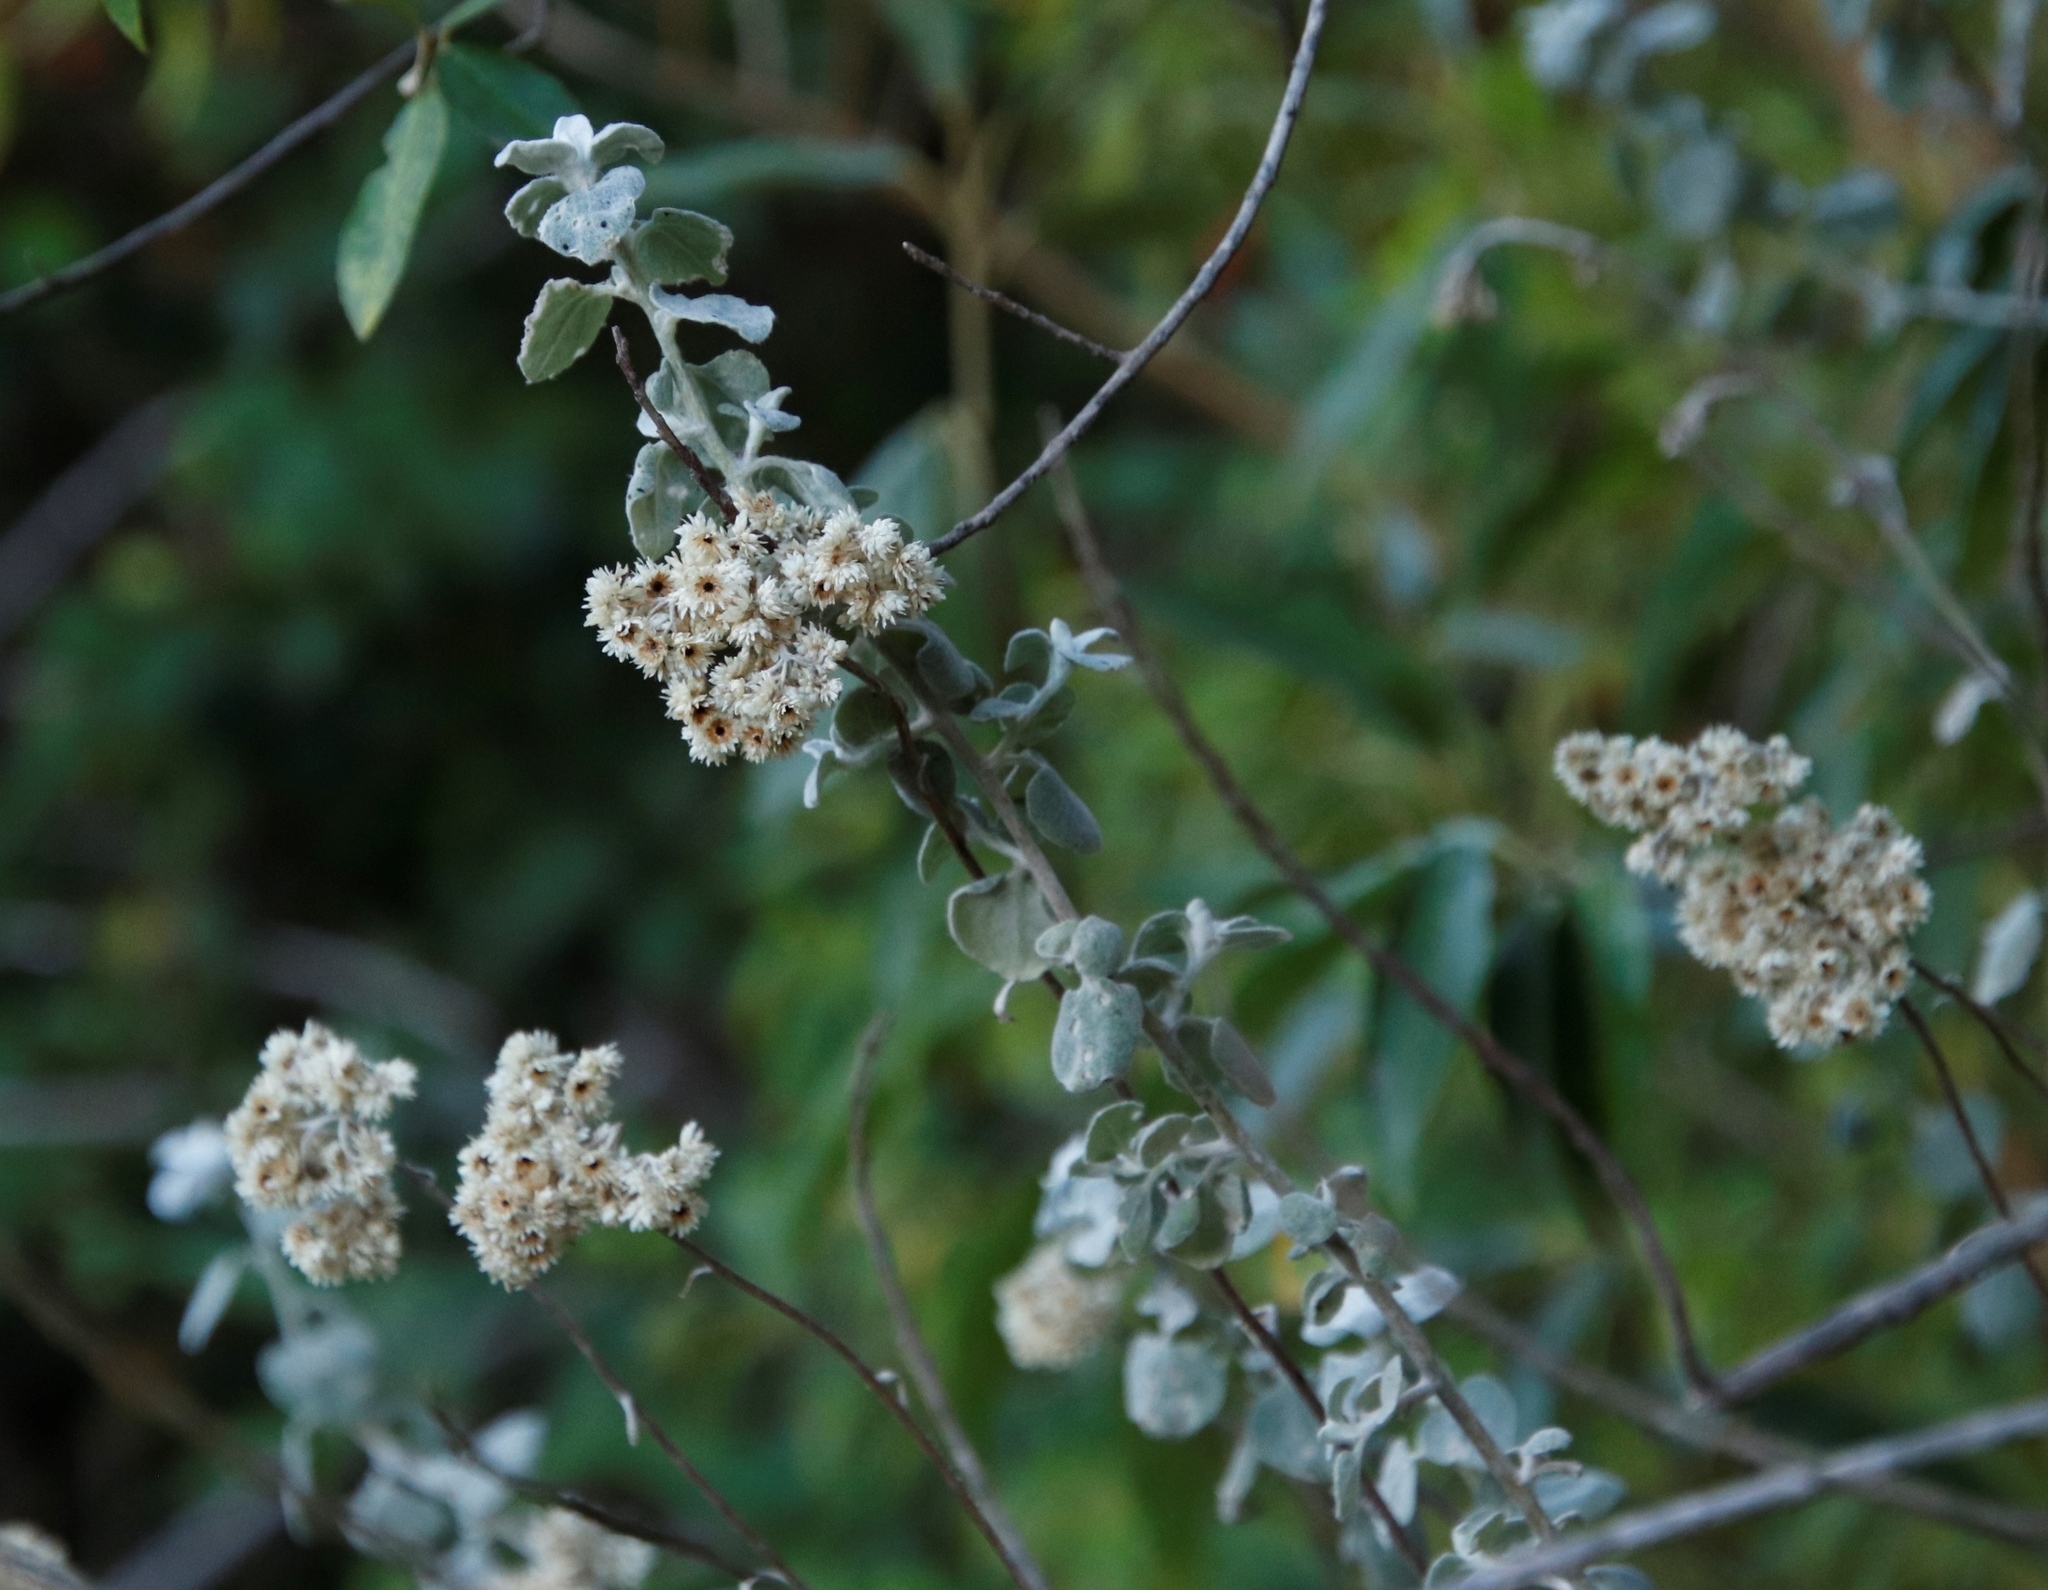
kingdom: Plantae
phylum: Tracheophyta
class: Magnoliopsida
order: Asterales
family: Asteraceae
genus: Helichrysum
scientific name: Helichrysum petiolare
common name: Licorice-plant
